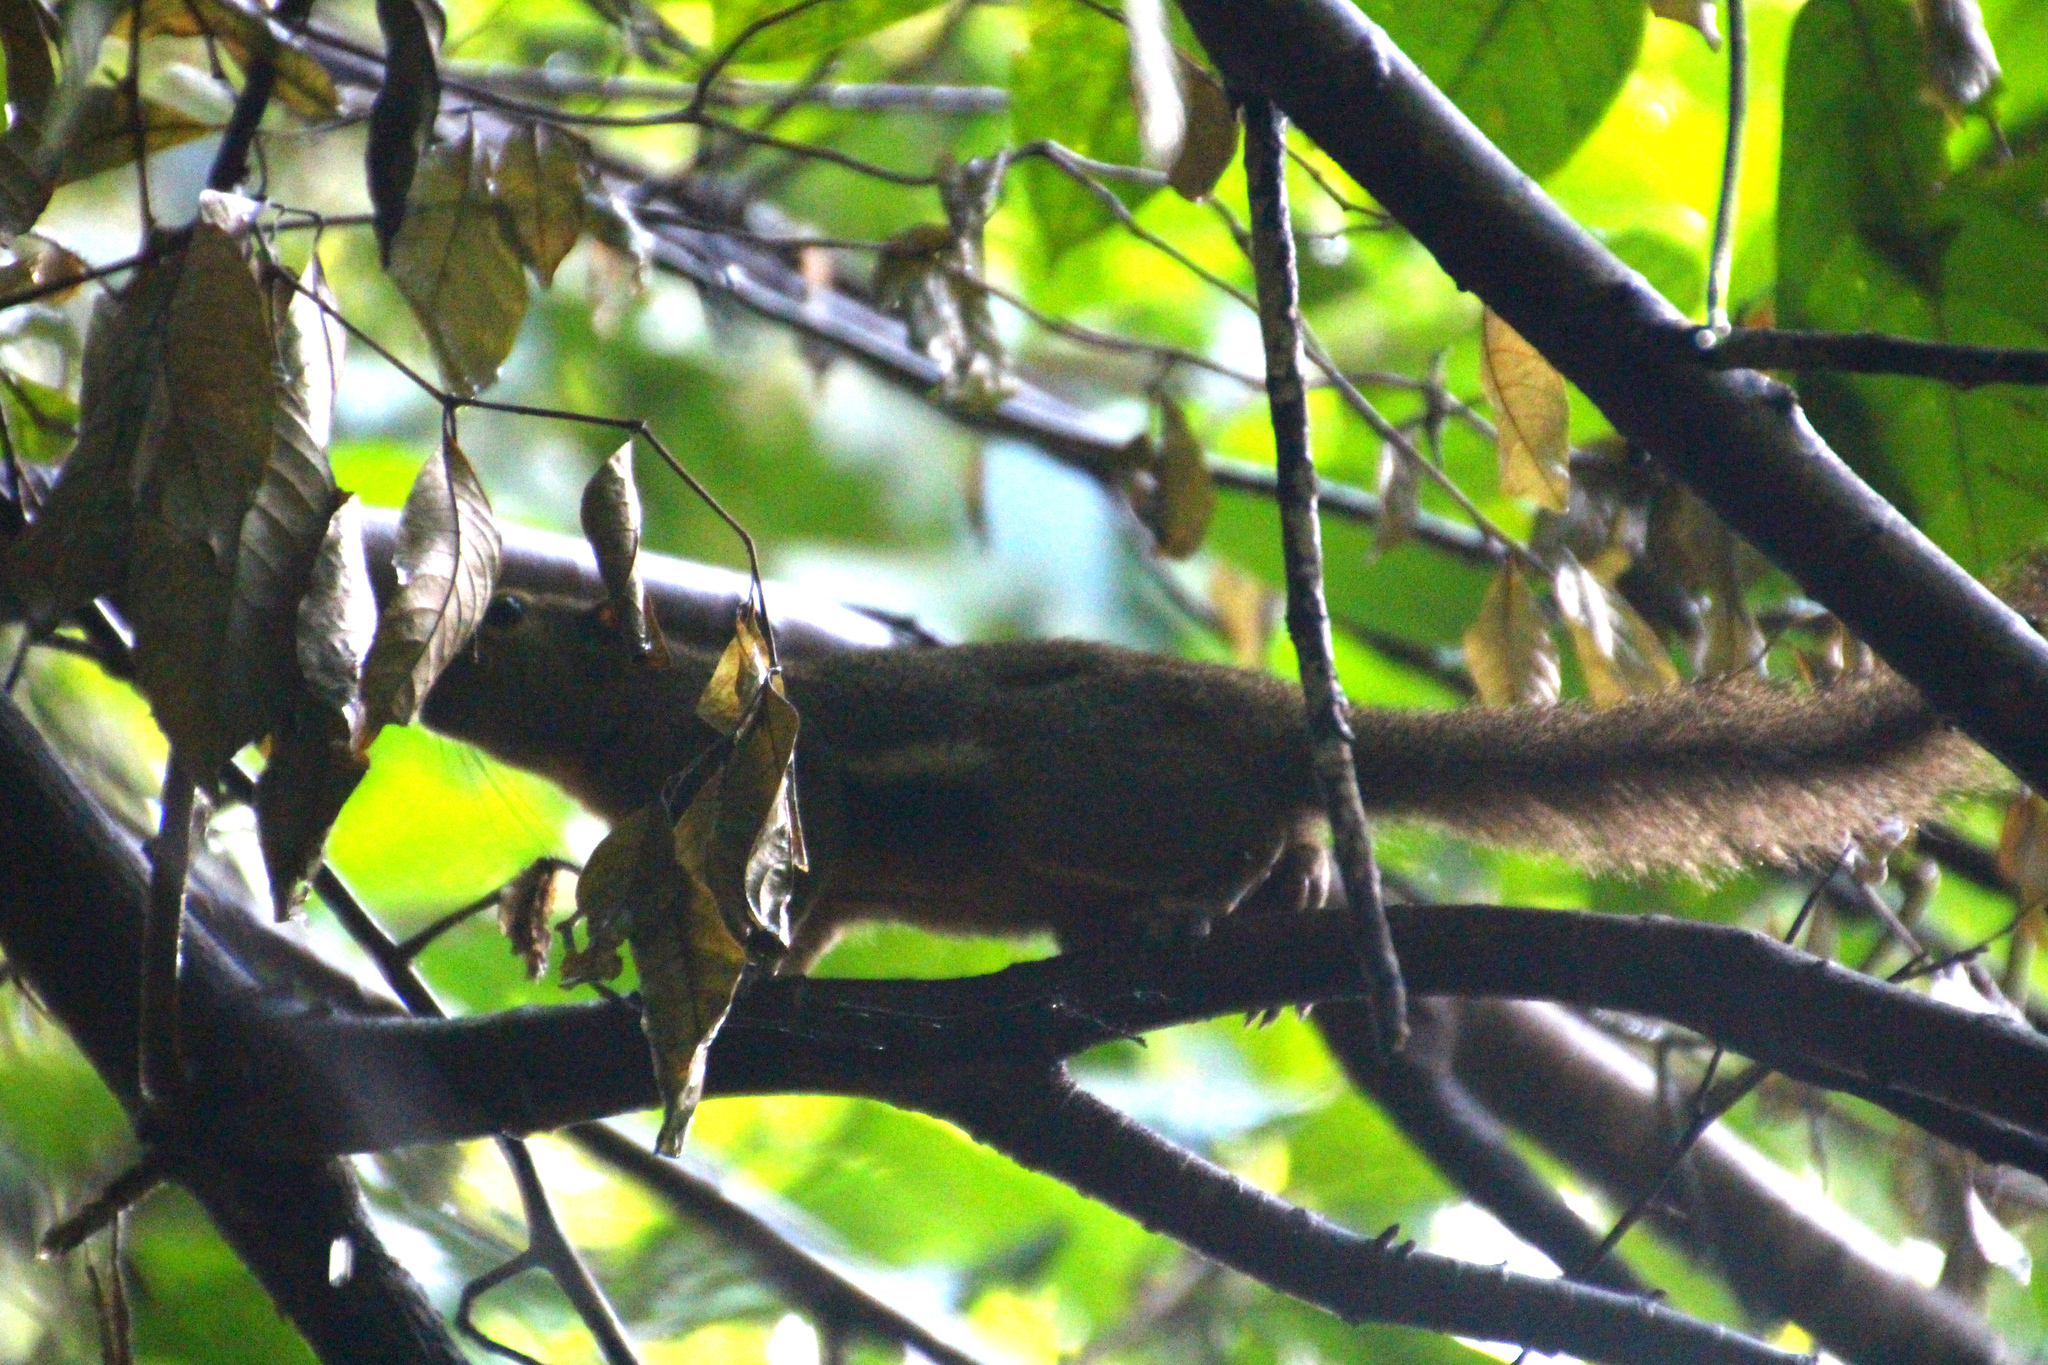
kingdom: Animalia
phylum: Chordata
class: Mammalia
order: Rodentia
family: Sciuridae
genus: Callosciurus
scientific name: Callosciurus notatus
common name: Plantain squirrel
